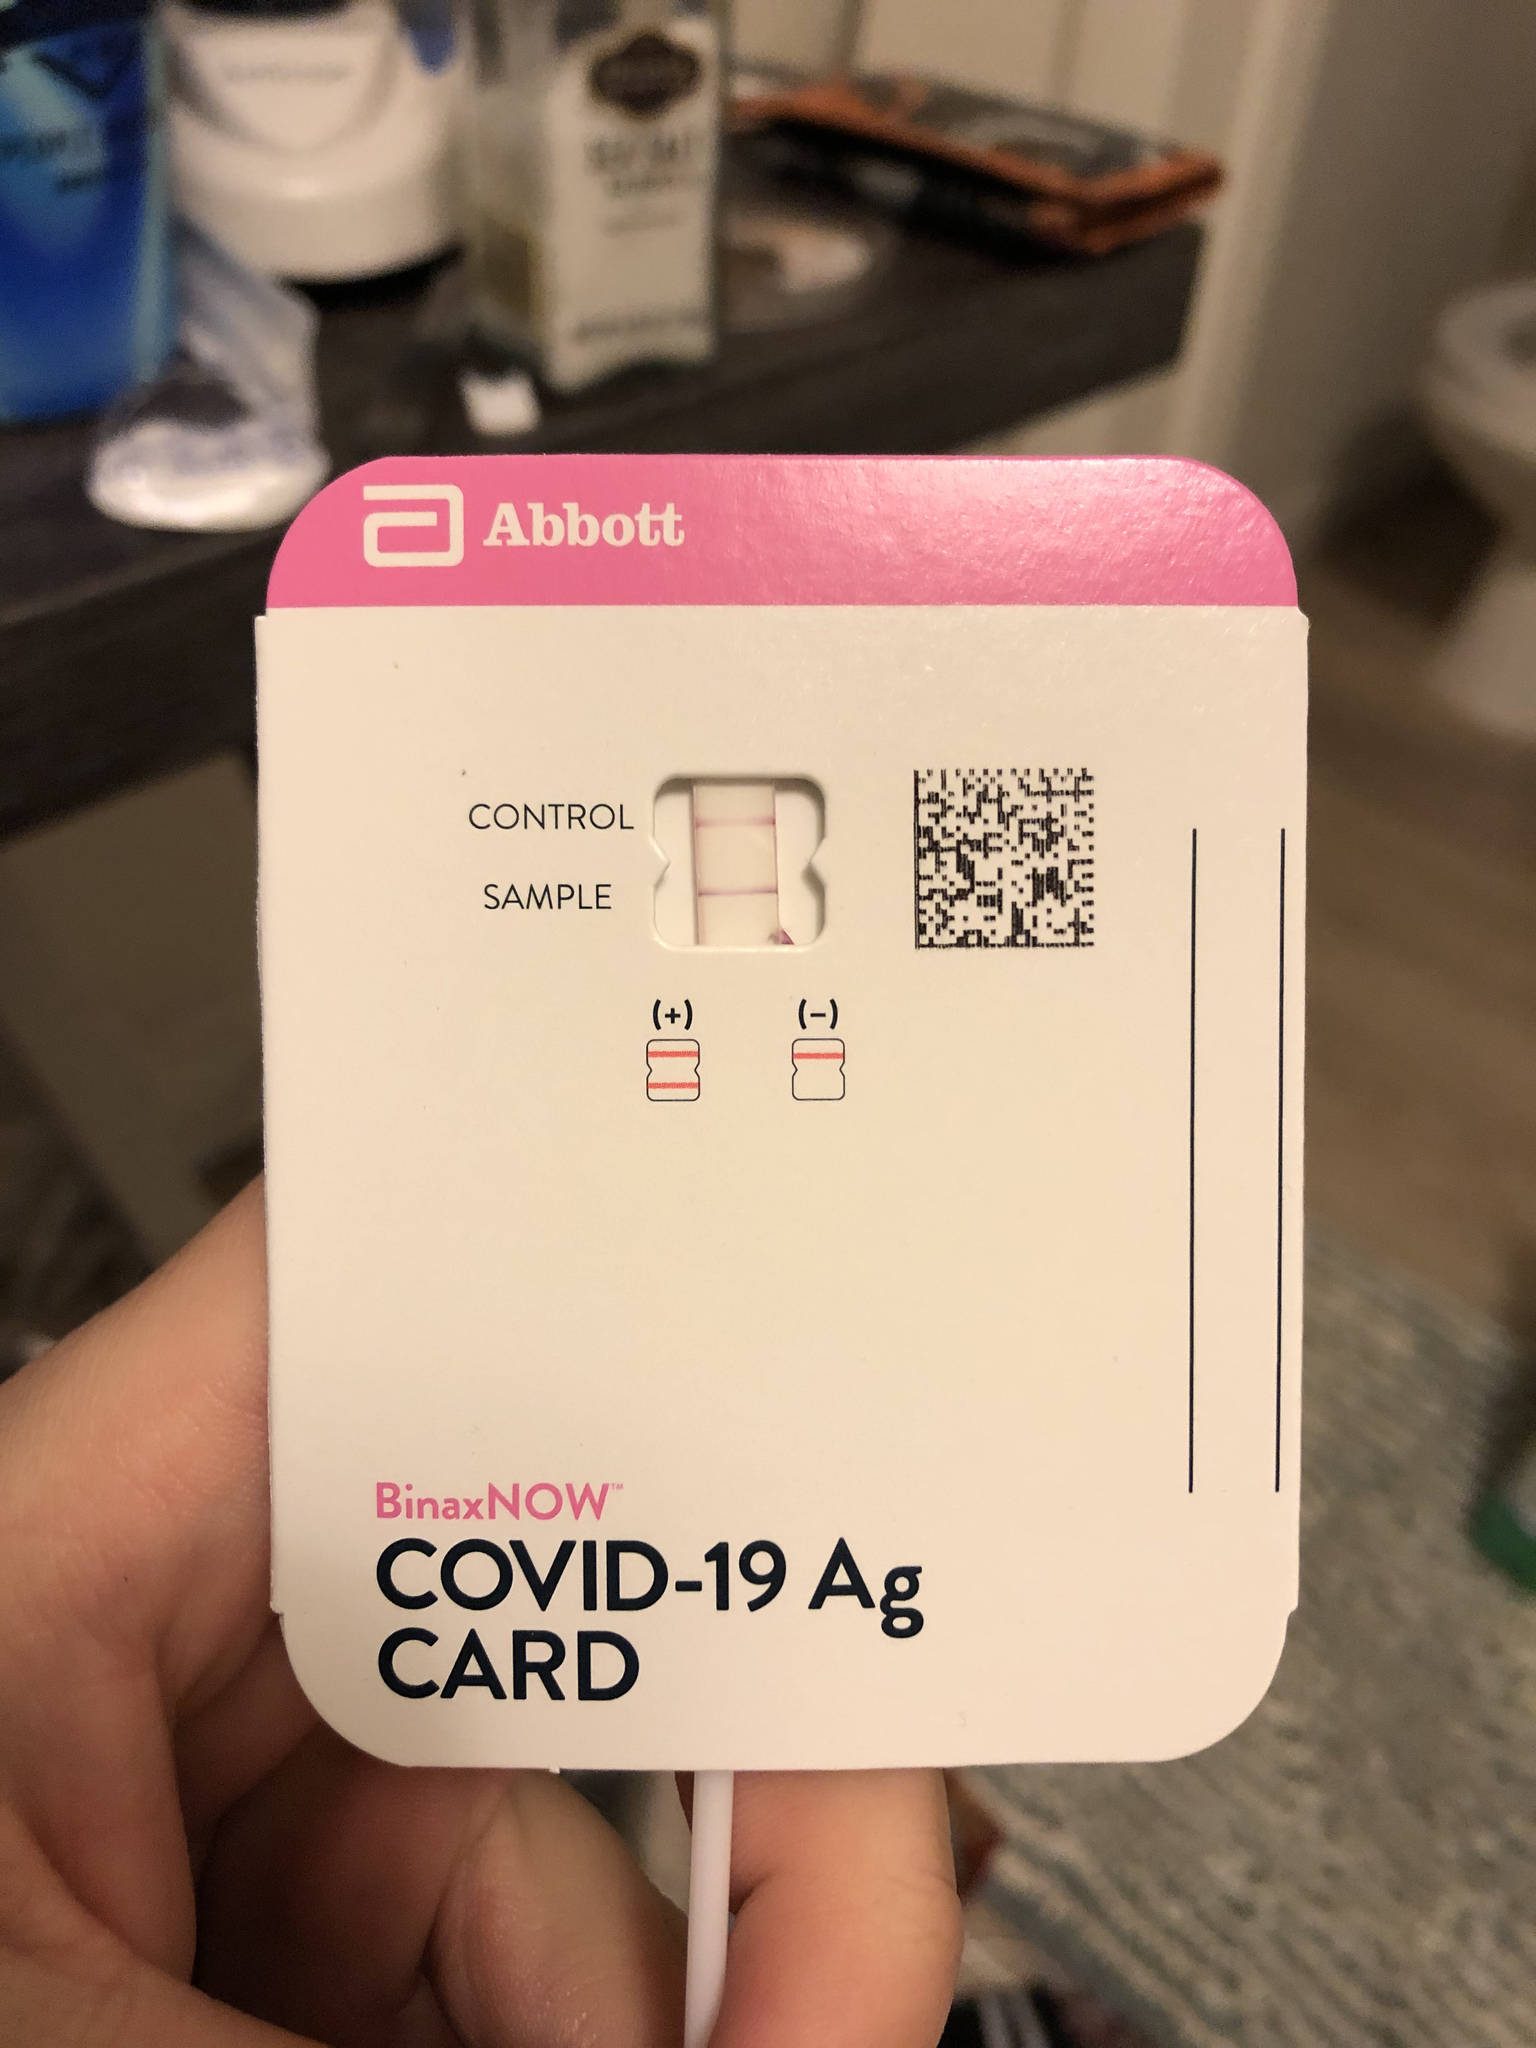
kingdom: Viruses
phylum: Pisuviricota
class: Pisoniviricetes
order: Nidovirales
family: Coronaviridae
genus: Betacoronavirus
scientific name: Betacoronavirus
